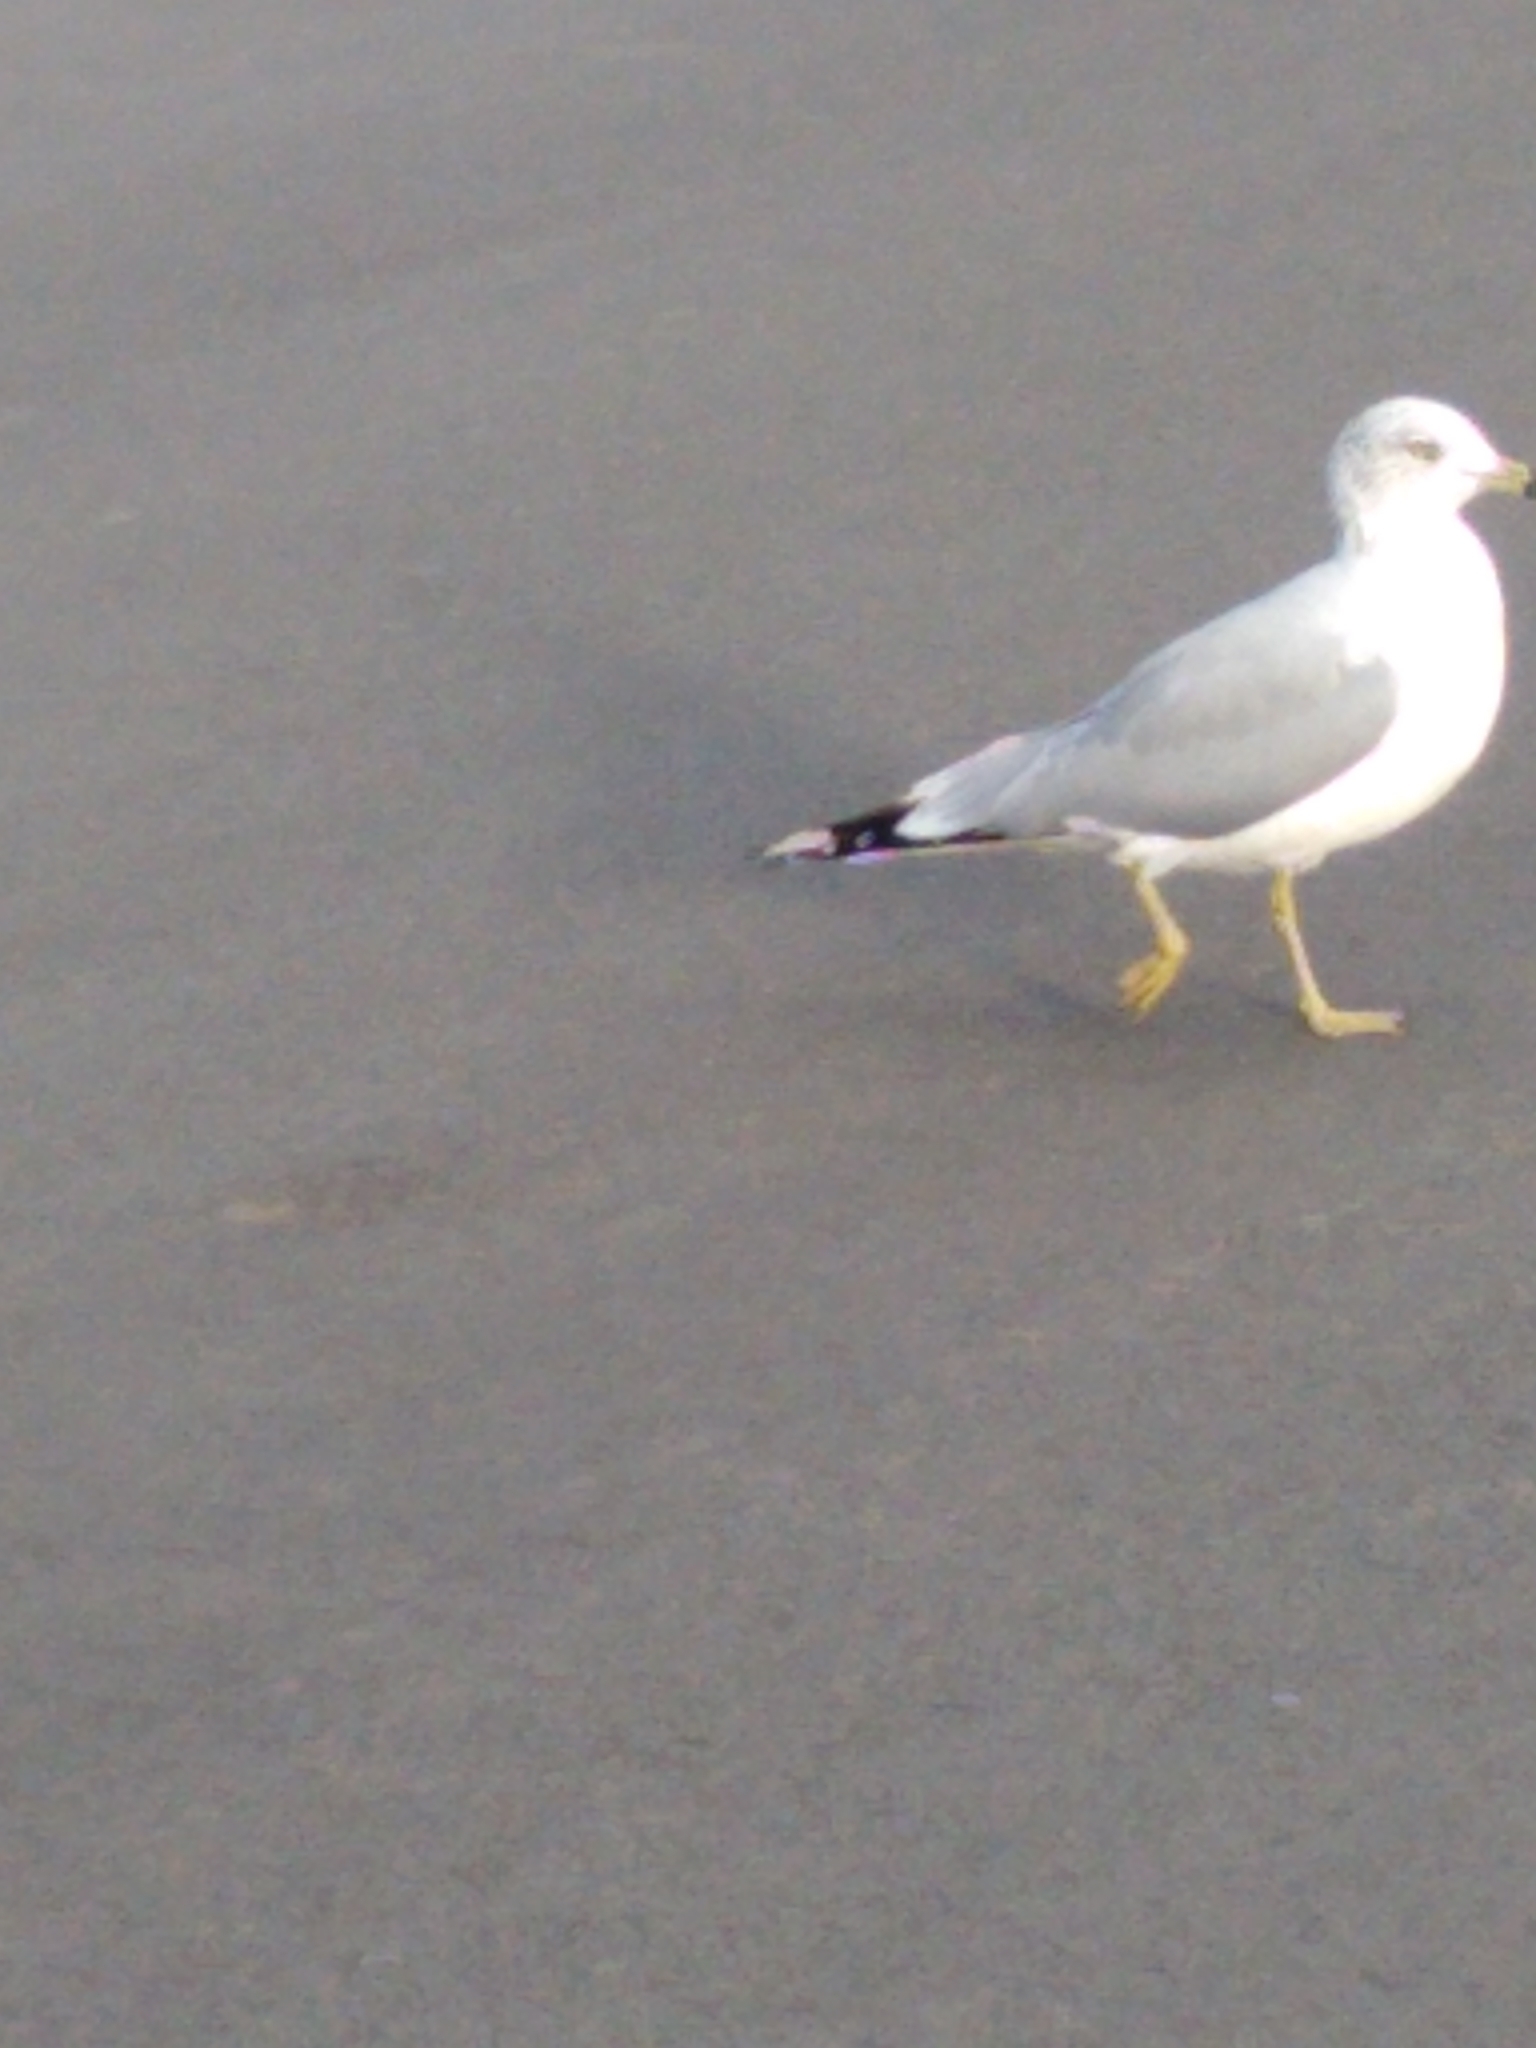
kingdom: Animalia
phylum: Chordata
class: Aves
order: Charadriiformes
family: Laridae
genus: Larus
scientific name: Larus delawarensis
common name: Ring-billed gull
